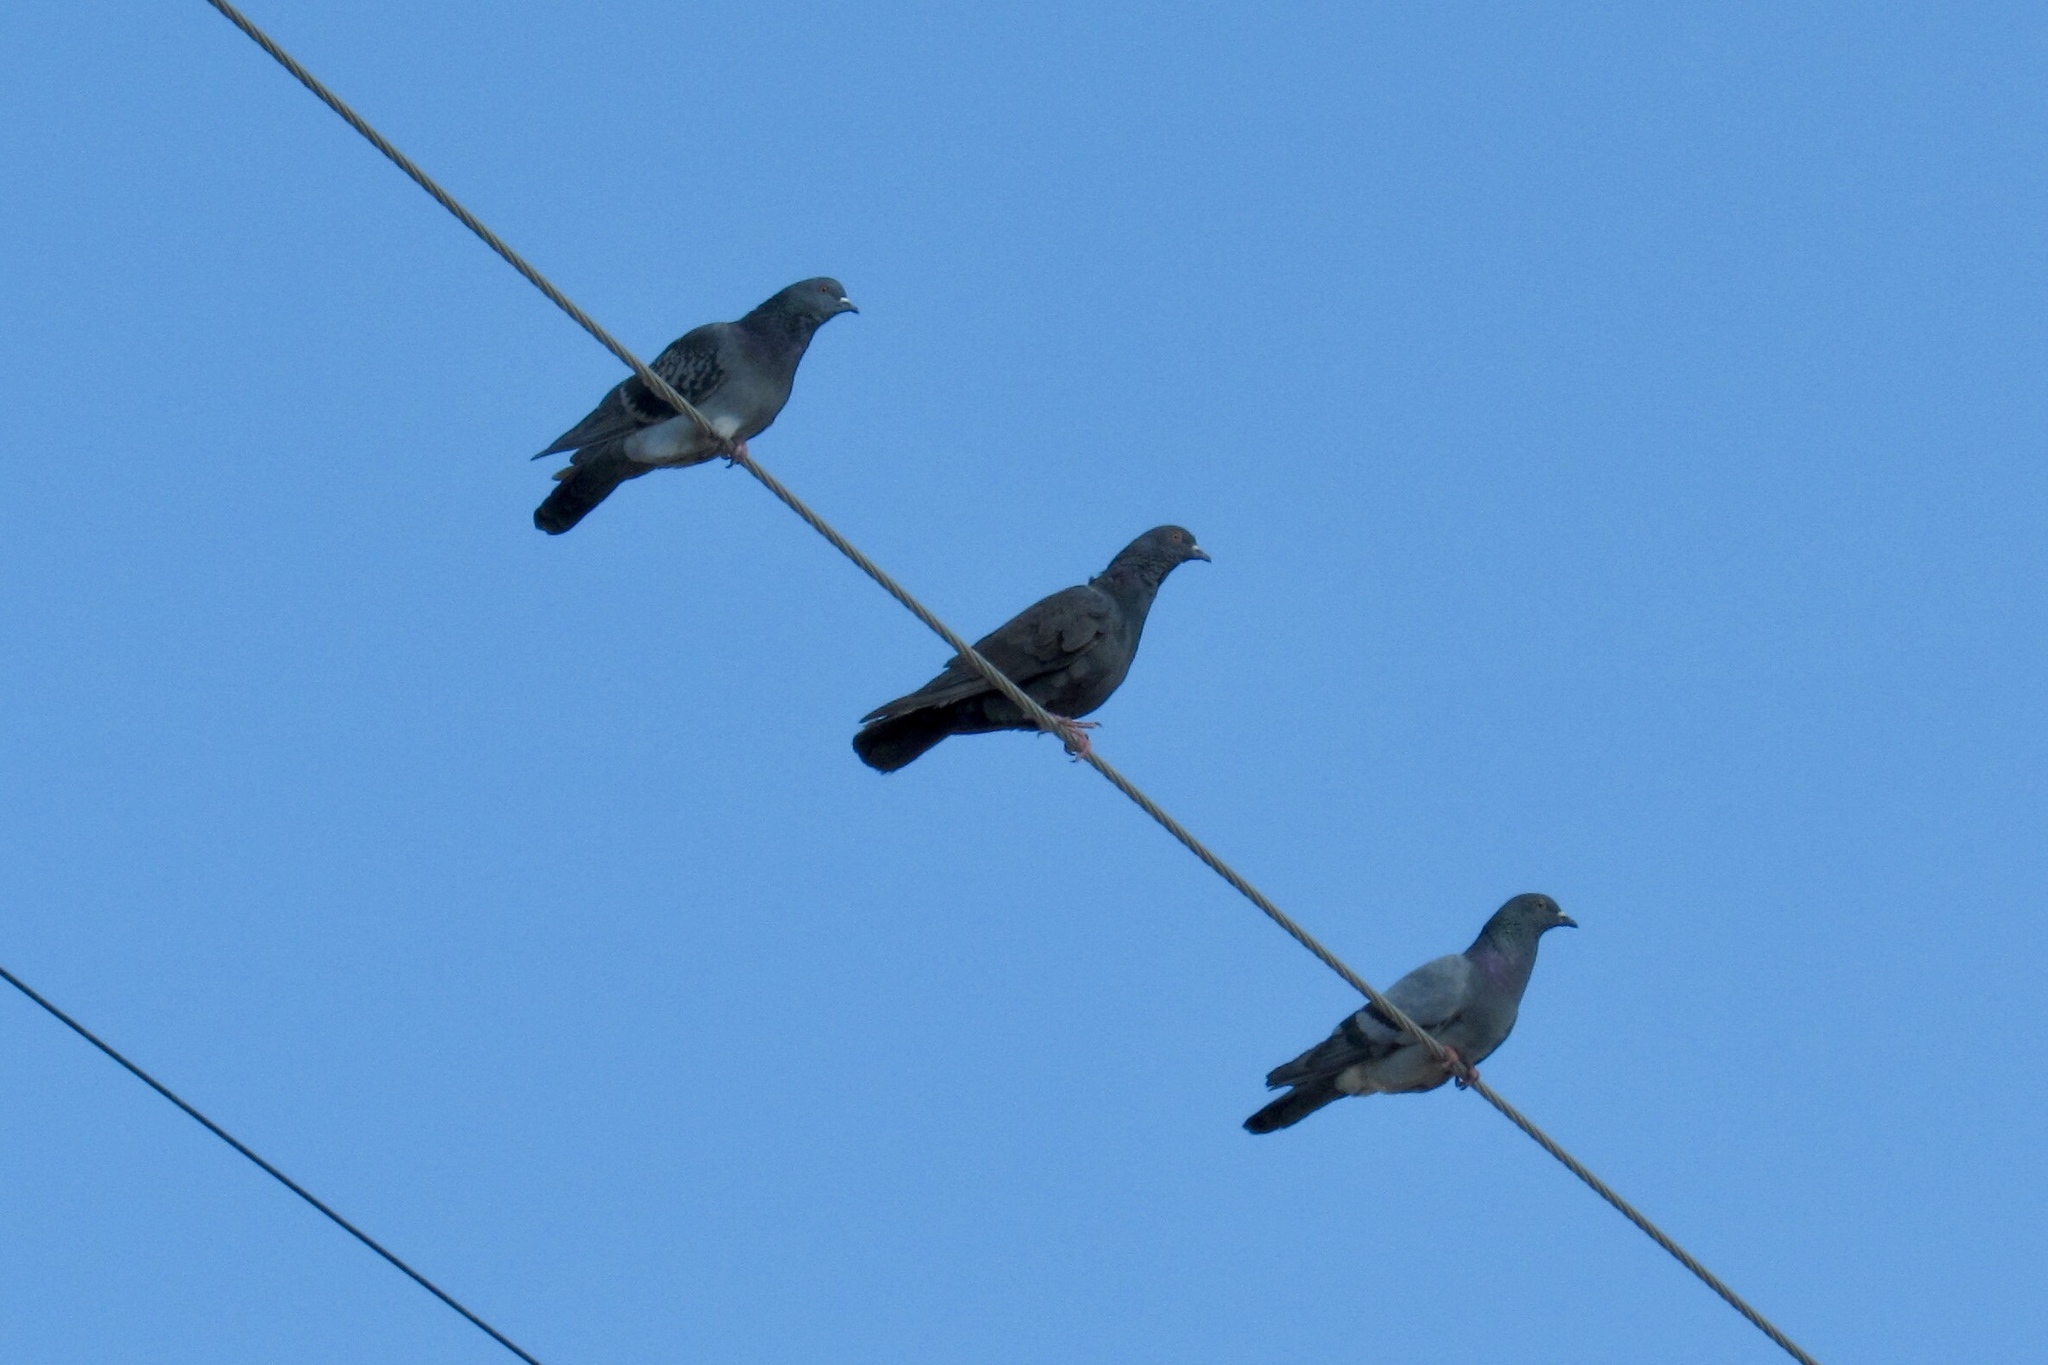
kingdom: Animalia
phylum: Chordata
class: Aves
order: Columbiformes
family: Columbidae
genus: Columba
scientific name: Columba livia
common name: Rock pigeon
